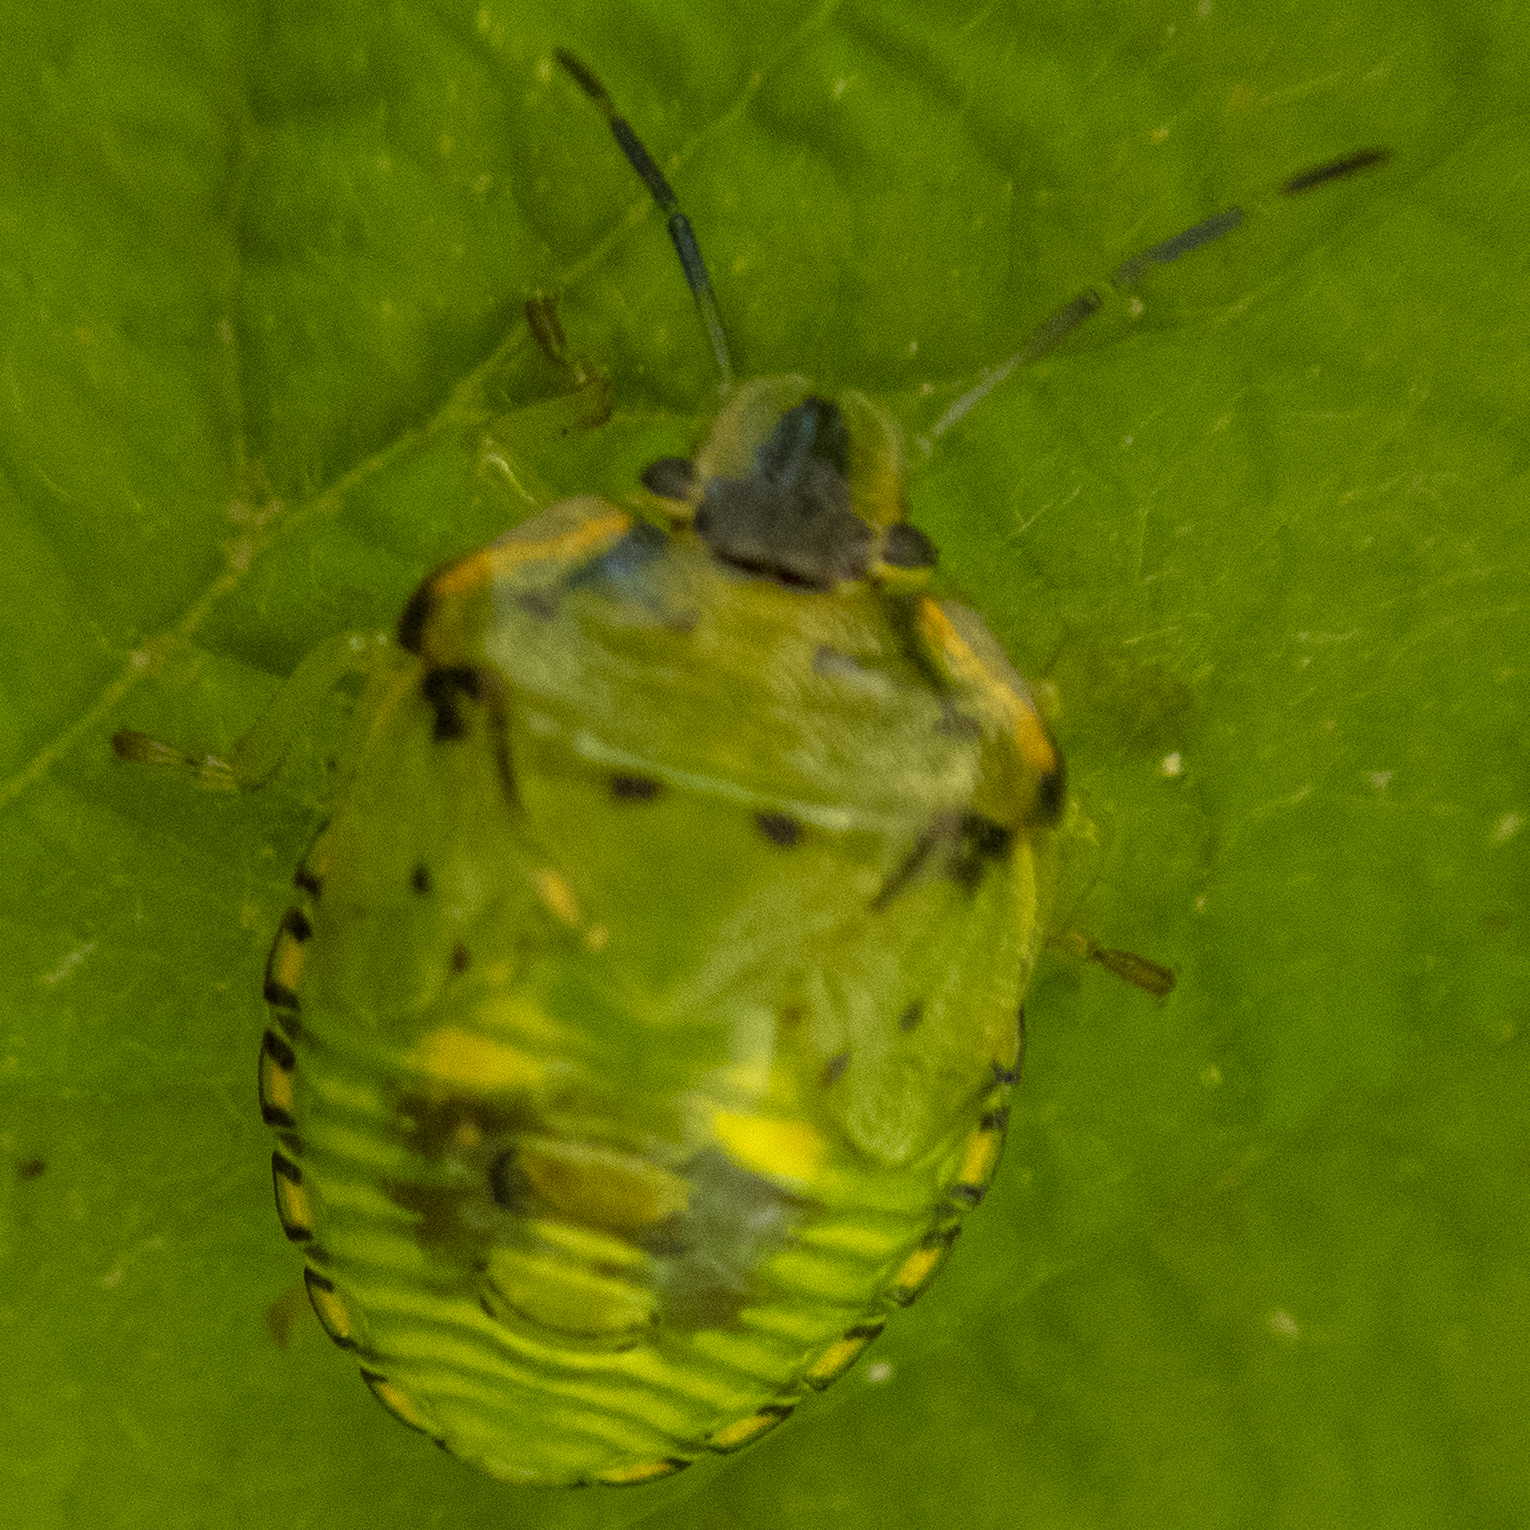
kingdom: Animalia
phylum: Arthropoda
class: Insecta
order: Hemiptera
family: Pentatomidae
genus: Chinavia
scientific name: Chinavia hilaris
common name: Green stink bug
